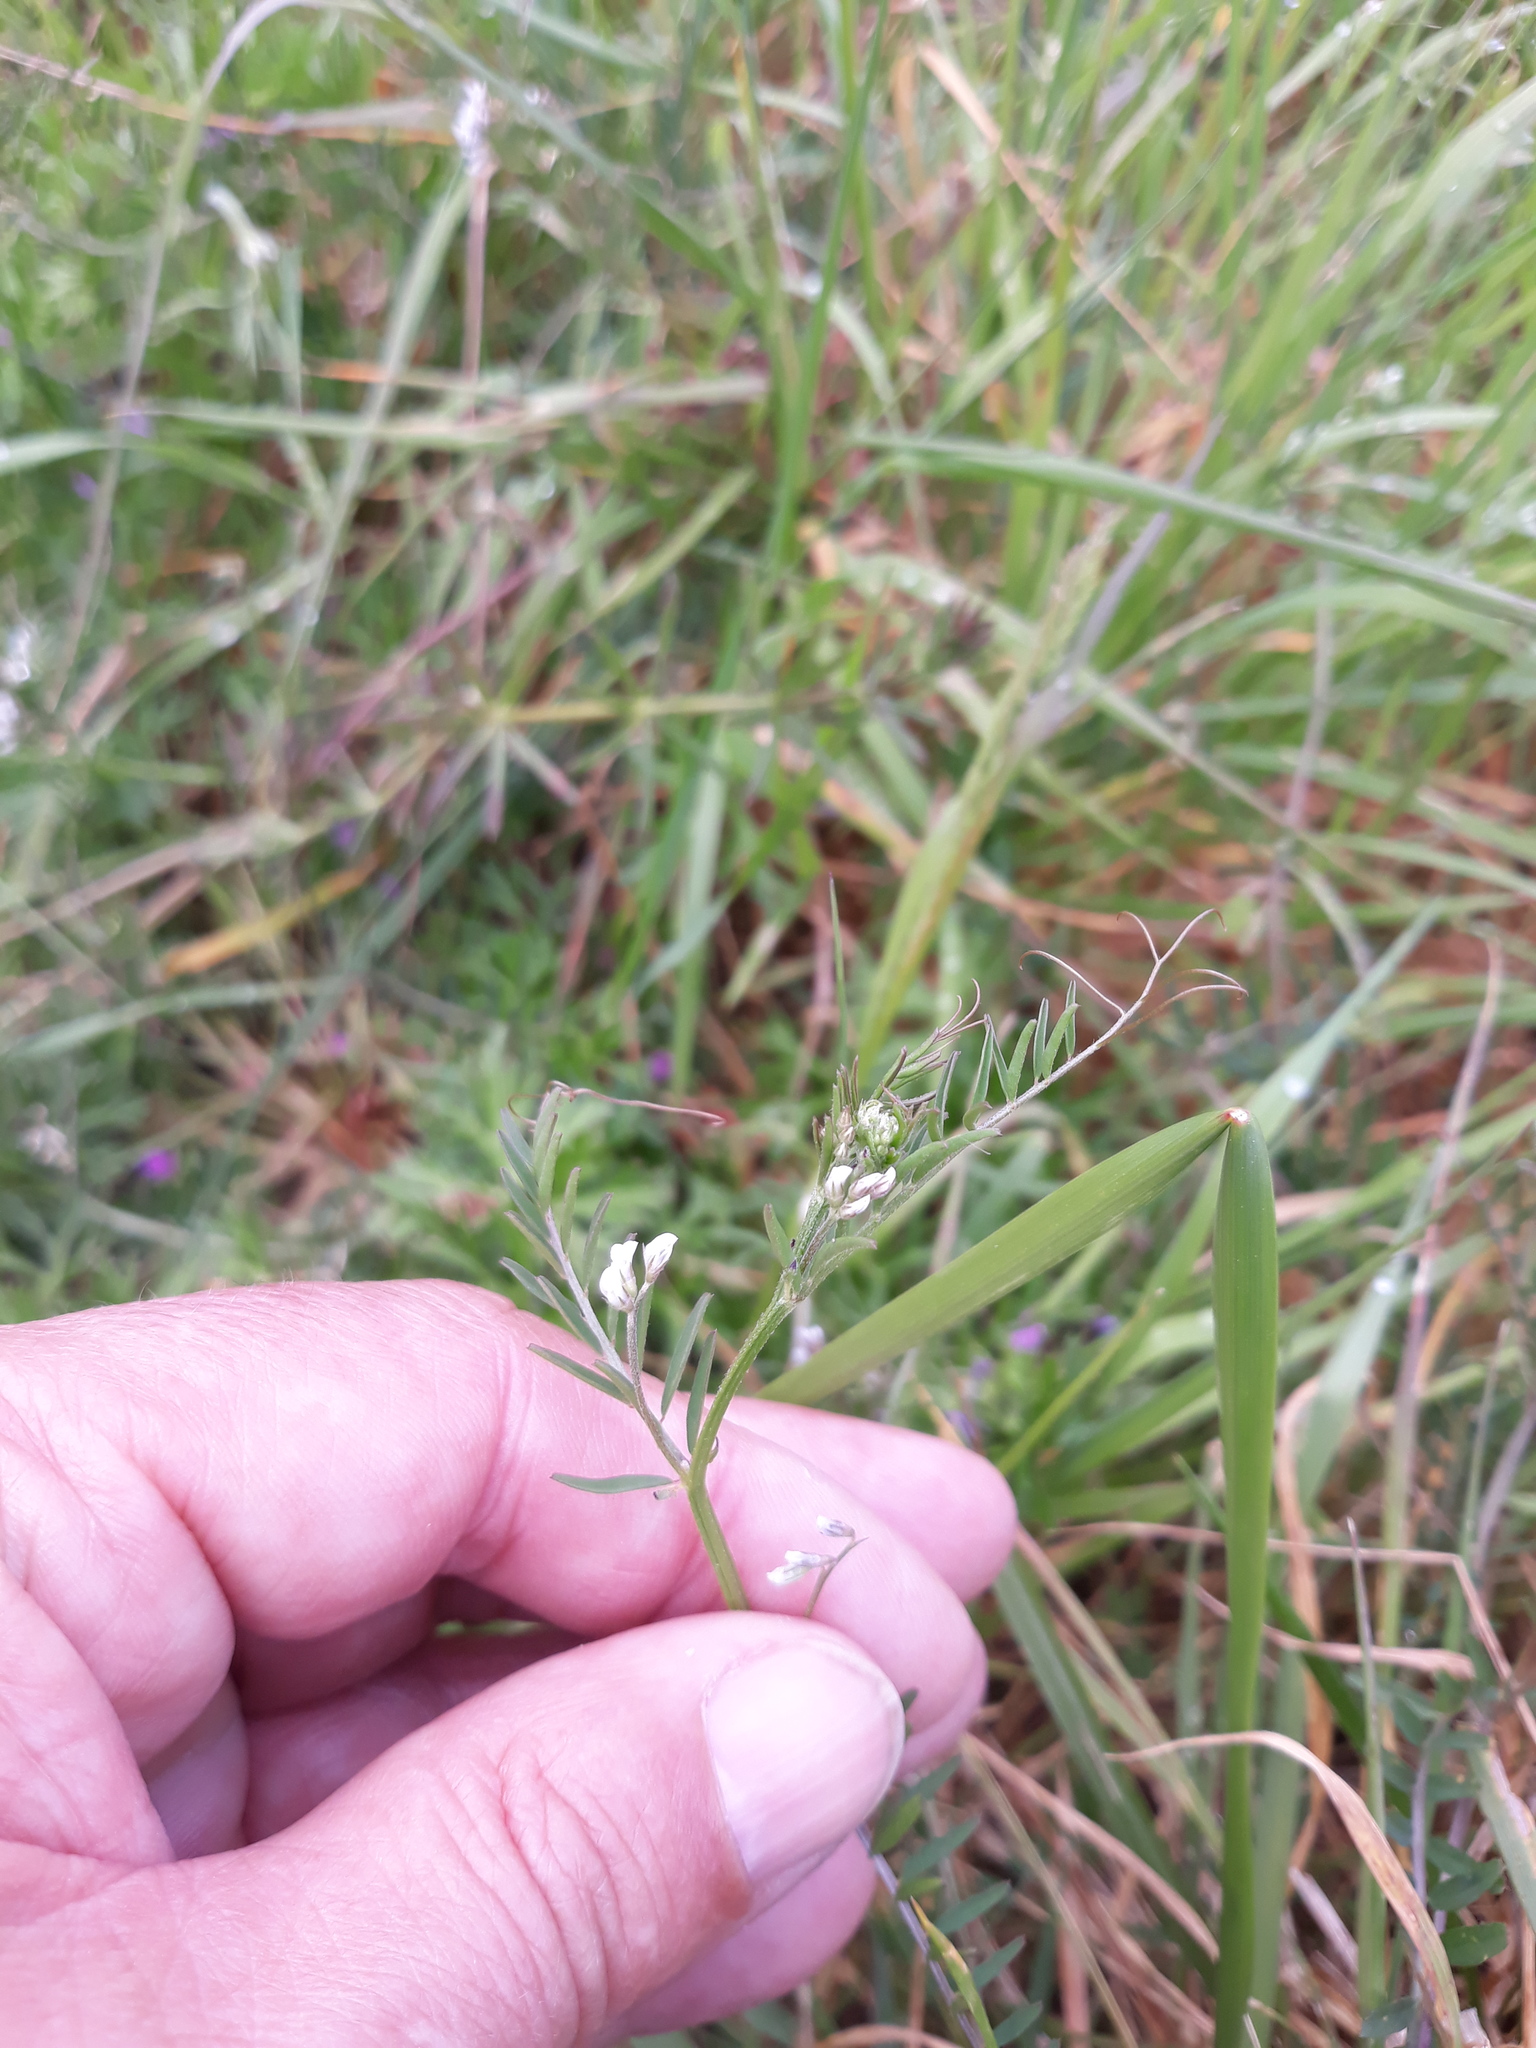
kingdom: Plantae
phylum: Tracheophyta
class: Magnoliopsida
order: Fabales
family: Fabaceae
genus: Vicia
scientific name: Vicia hirsuta
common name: Tiny vetch
